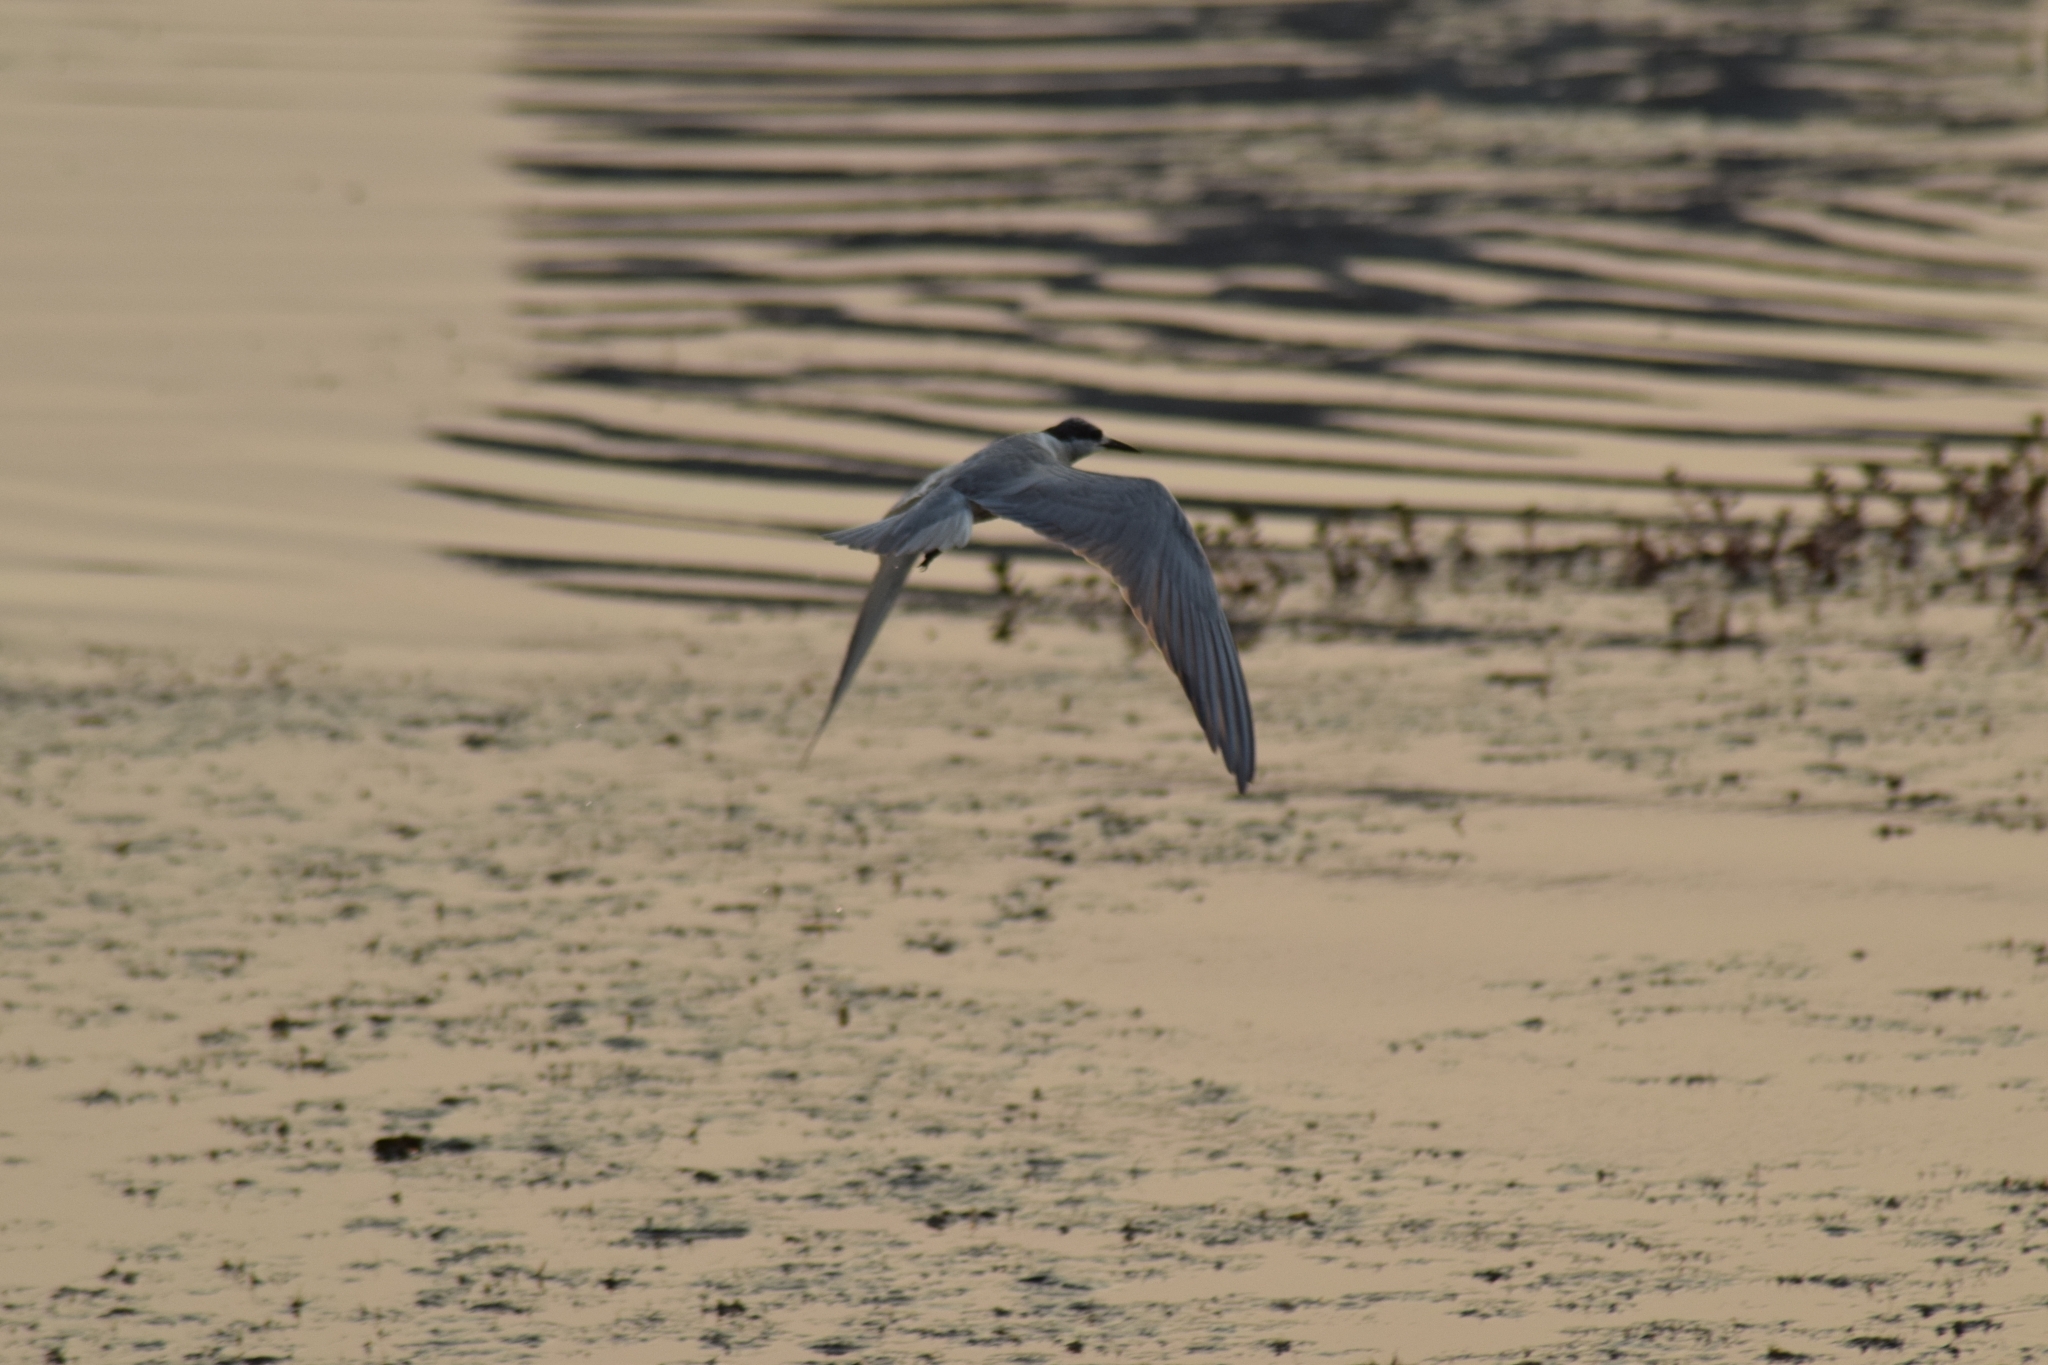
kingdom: Animalia
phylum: Chordata
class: Aves
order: Charadriiformes
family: Laridae
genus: Chlidonias
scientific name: Chlidonias hybrida
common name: Whiskered tern
